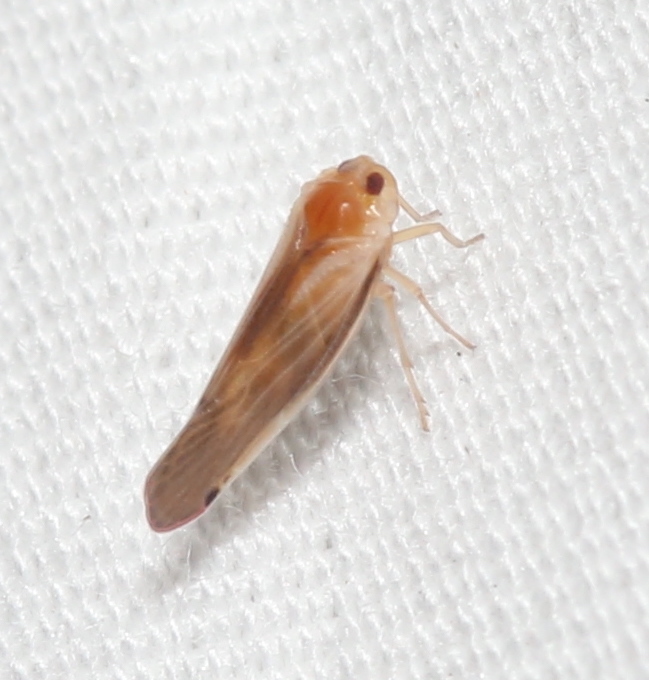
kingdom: Animalia
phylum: Arthropoda
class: Insecta
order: Hemiptera
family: Derbidae
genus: Omolicna
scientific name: Omolicna uhleri
